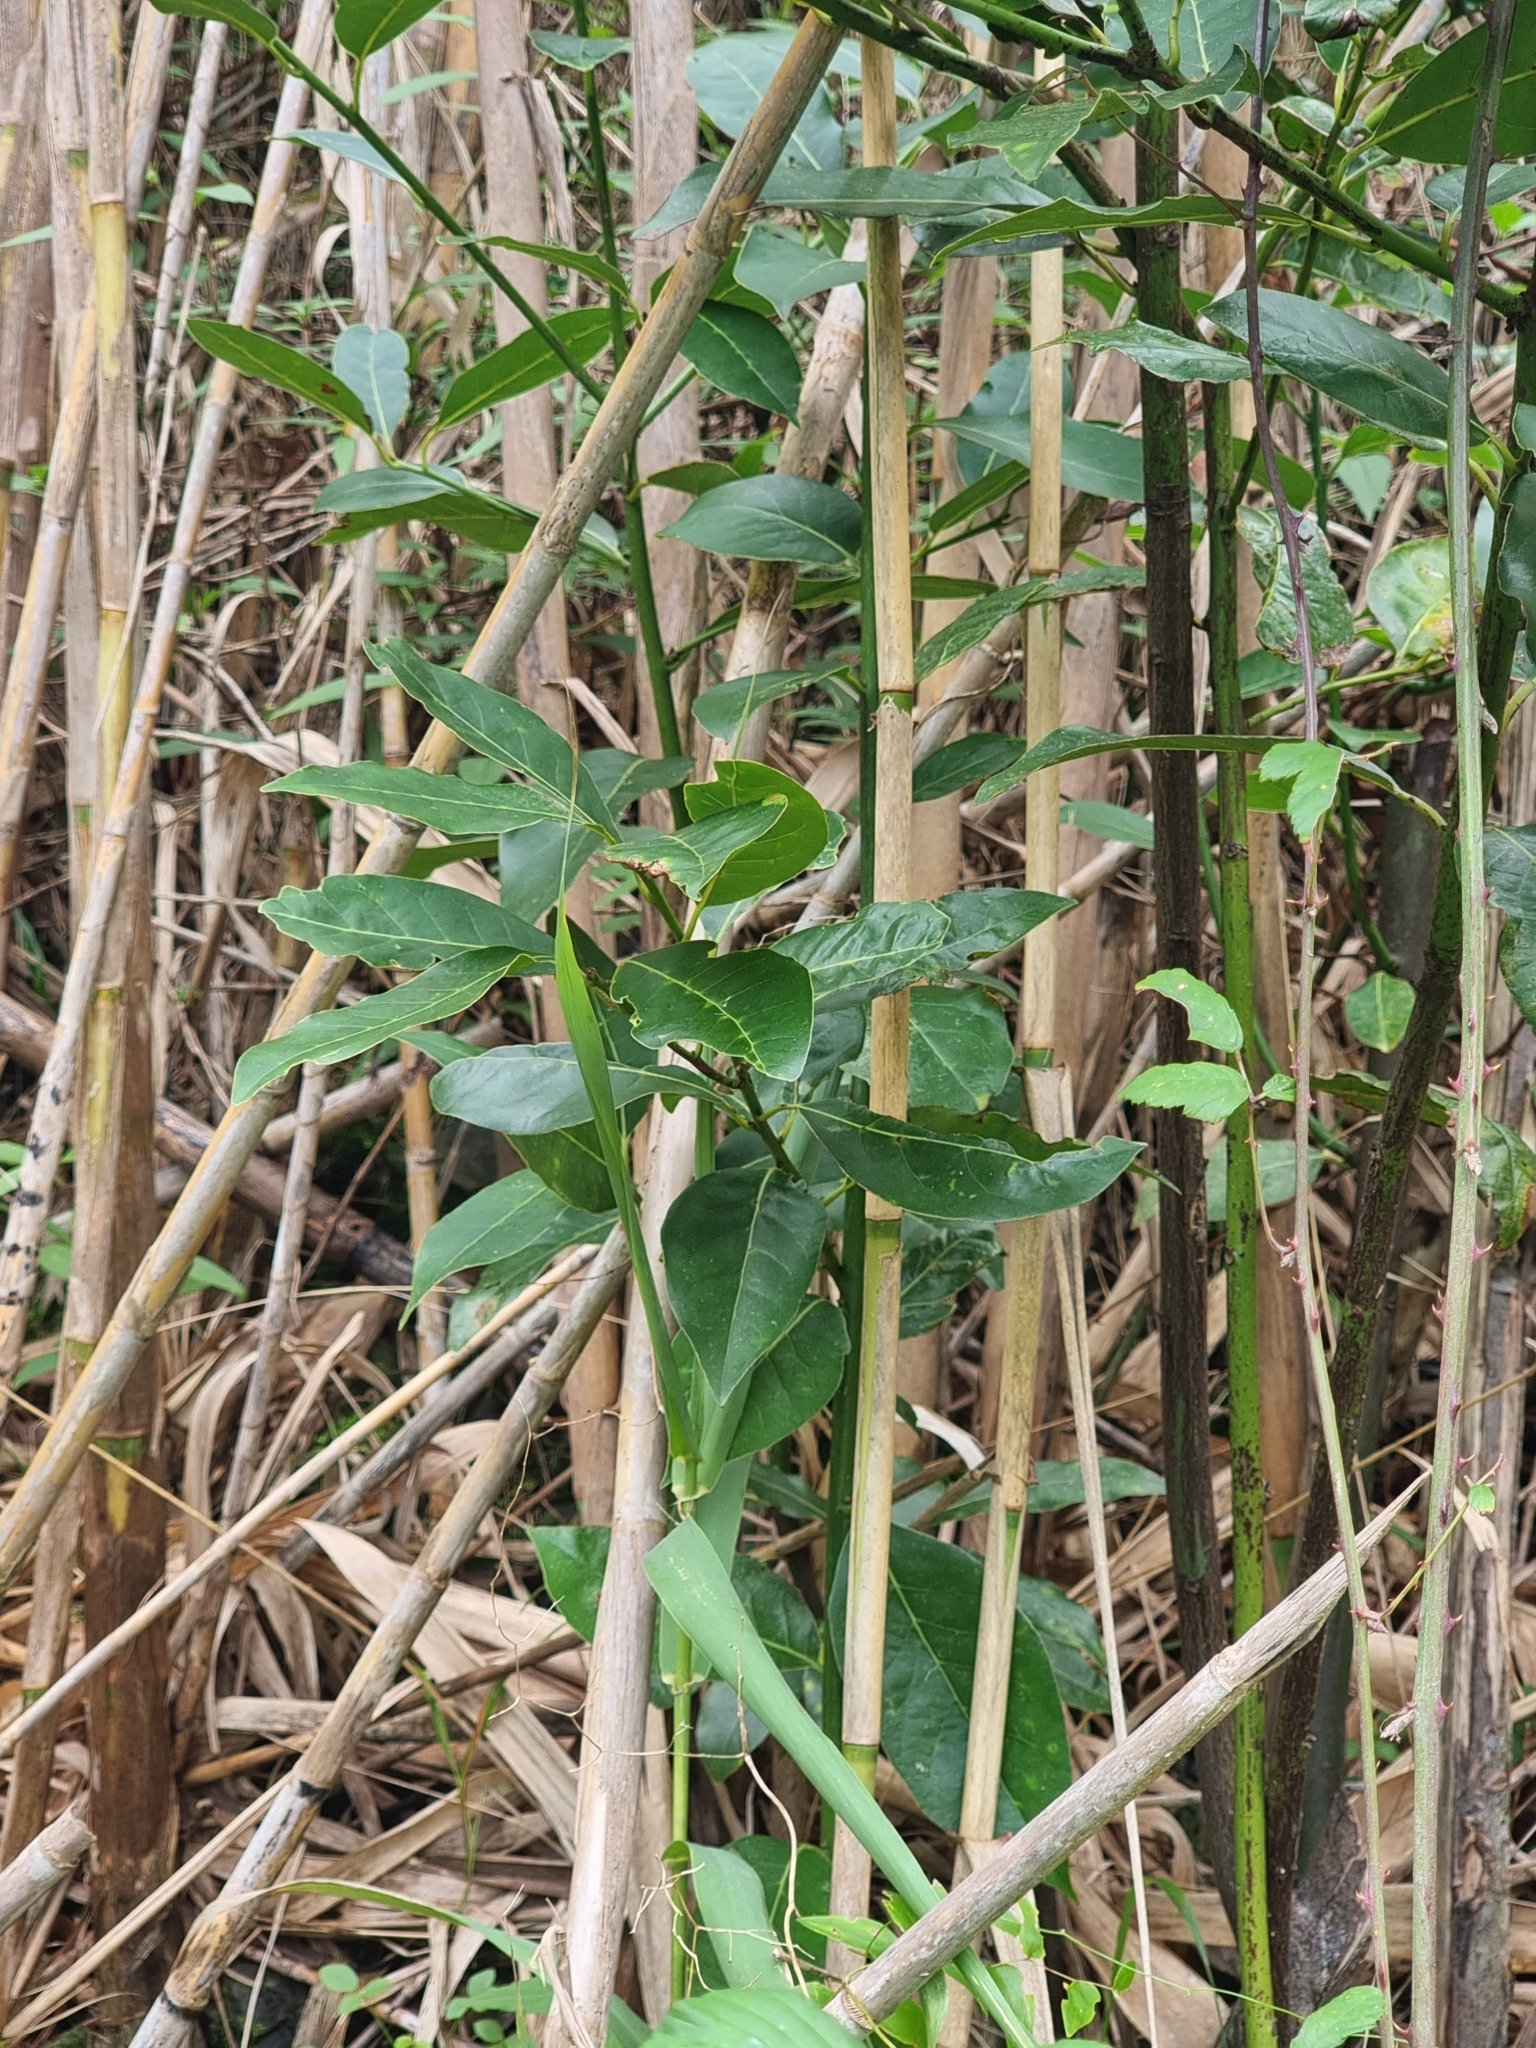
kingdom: Plantae
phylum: Tracheophyta
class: Magnoliopsida
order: Laurales
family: Lauraceae
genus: Laurus
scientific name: Laurus novocanariensis
